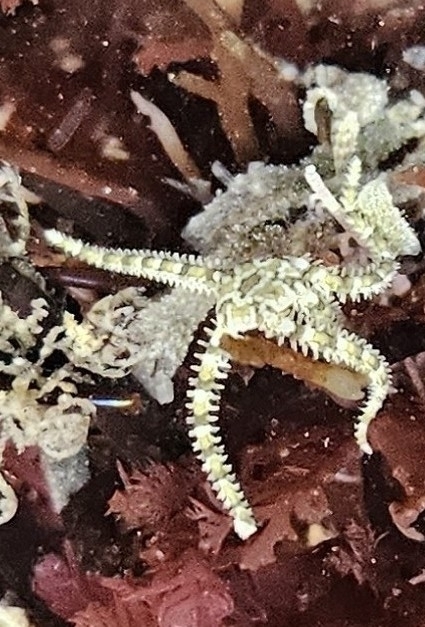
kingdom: Animalia
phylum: Echinodermata
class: Ophiuroidea
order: Amphilepidida
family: Ophionereididae
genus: Ophionereis
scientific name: Ophionereis diabloensis
